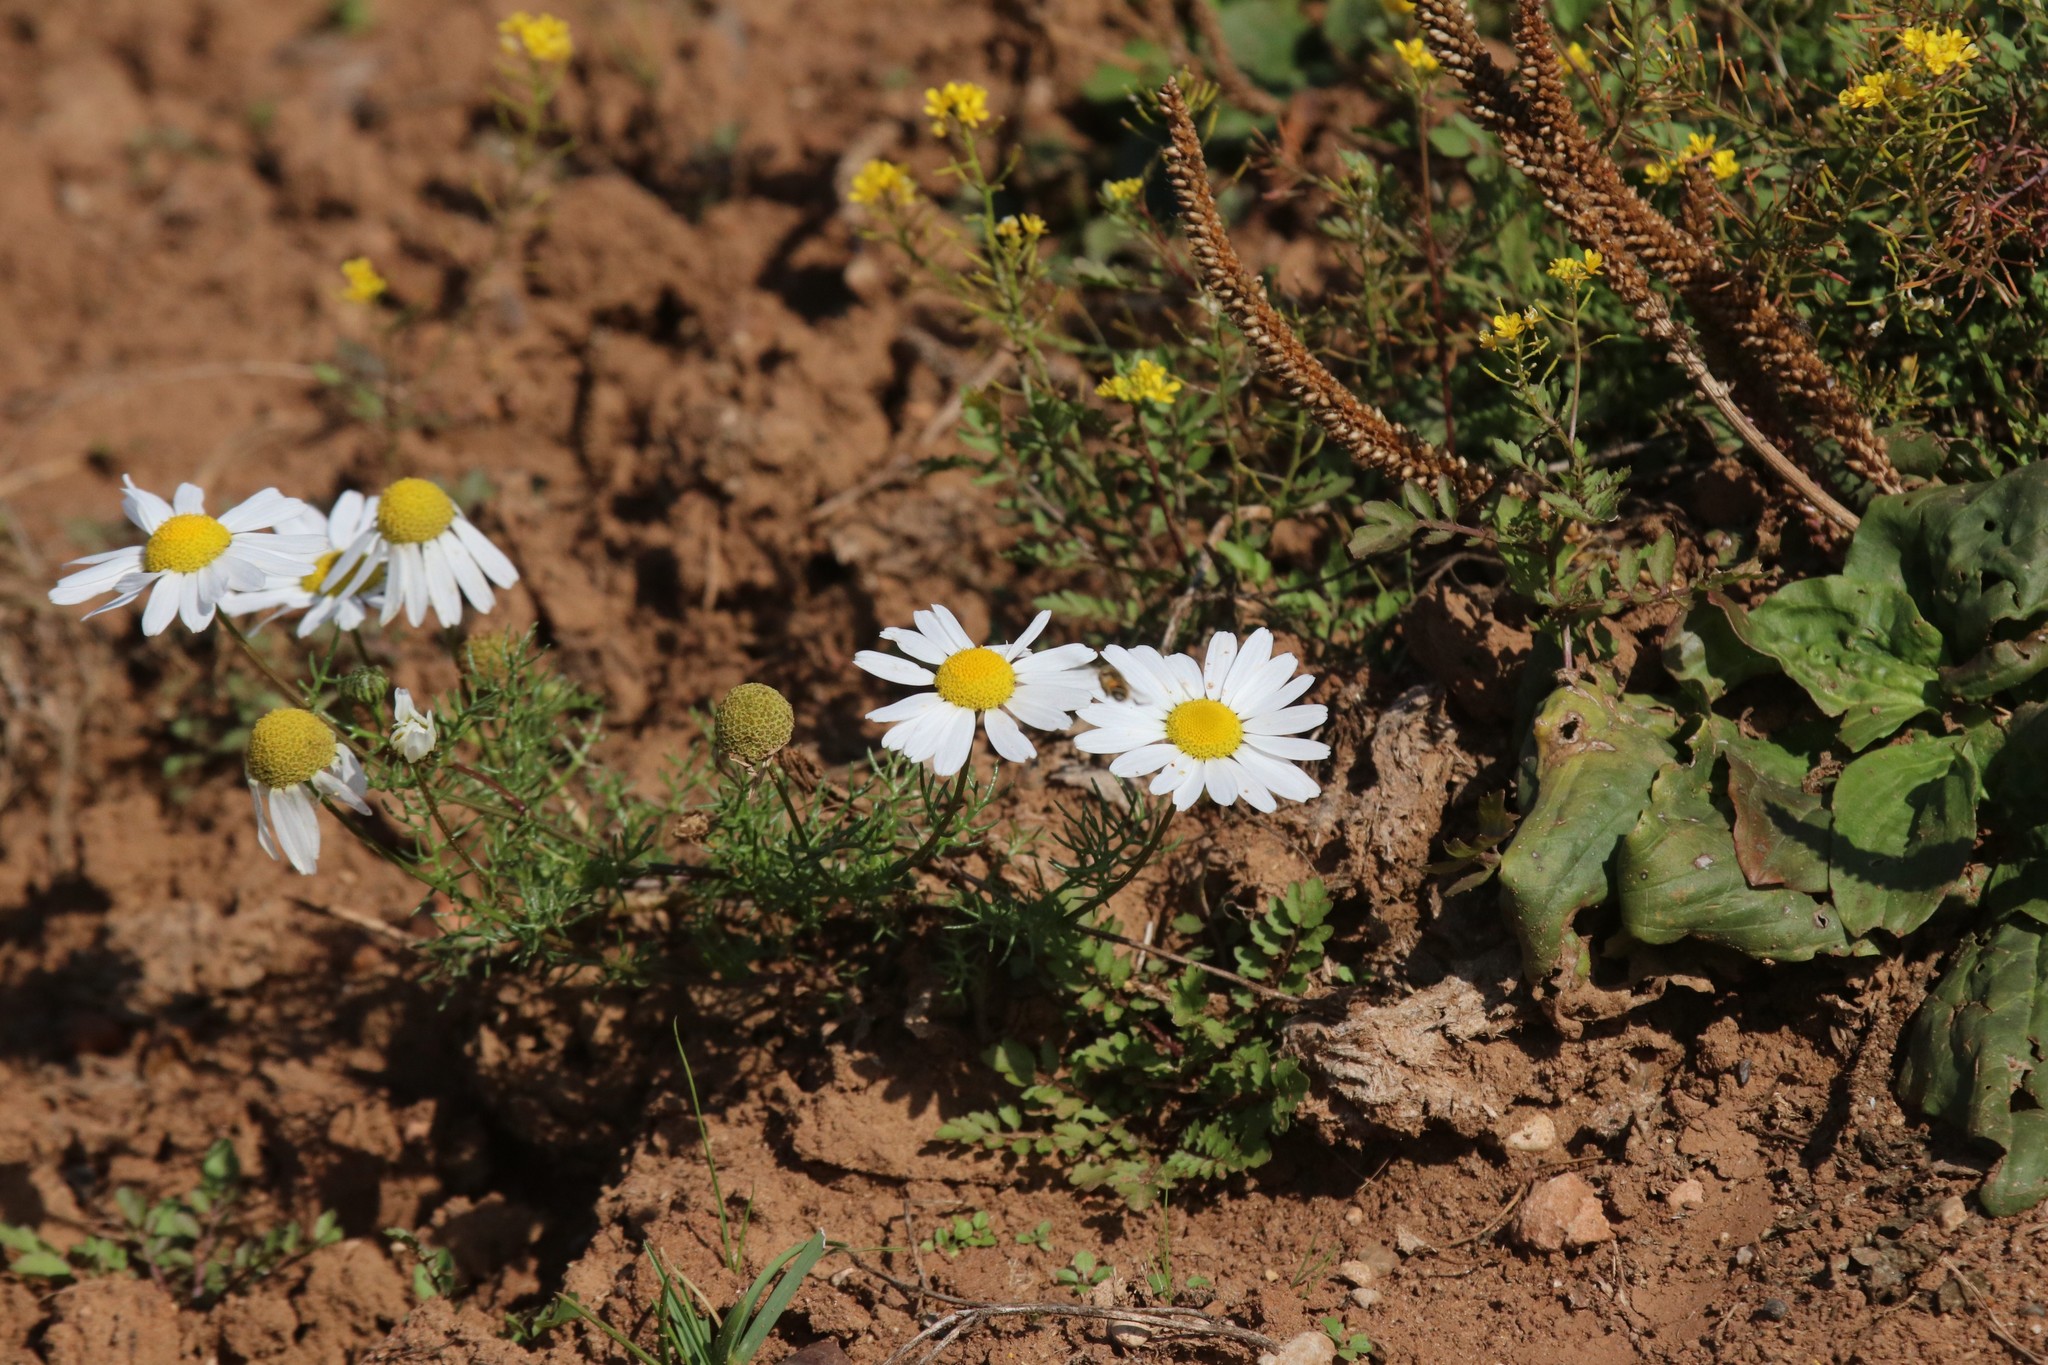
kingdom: Plantae
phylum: Tracheophyta
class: Magnoliopsida
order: Asterales
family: Asteraceae
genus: Tripleurospermum
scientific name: Tripleurospermum inodorum
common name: Scentless mayweed
